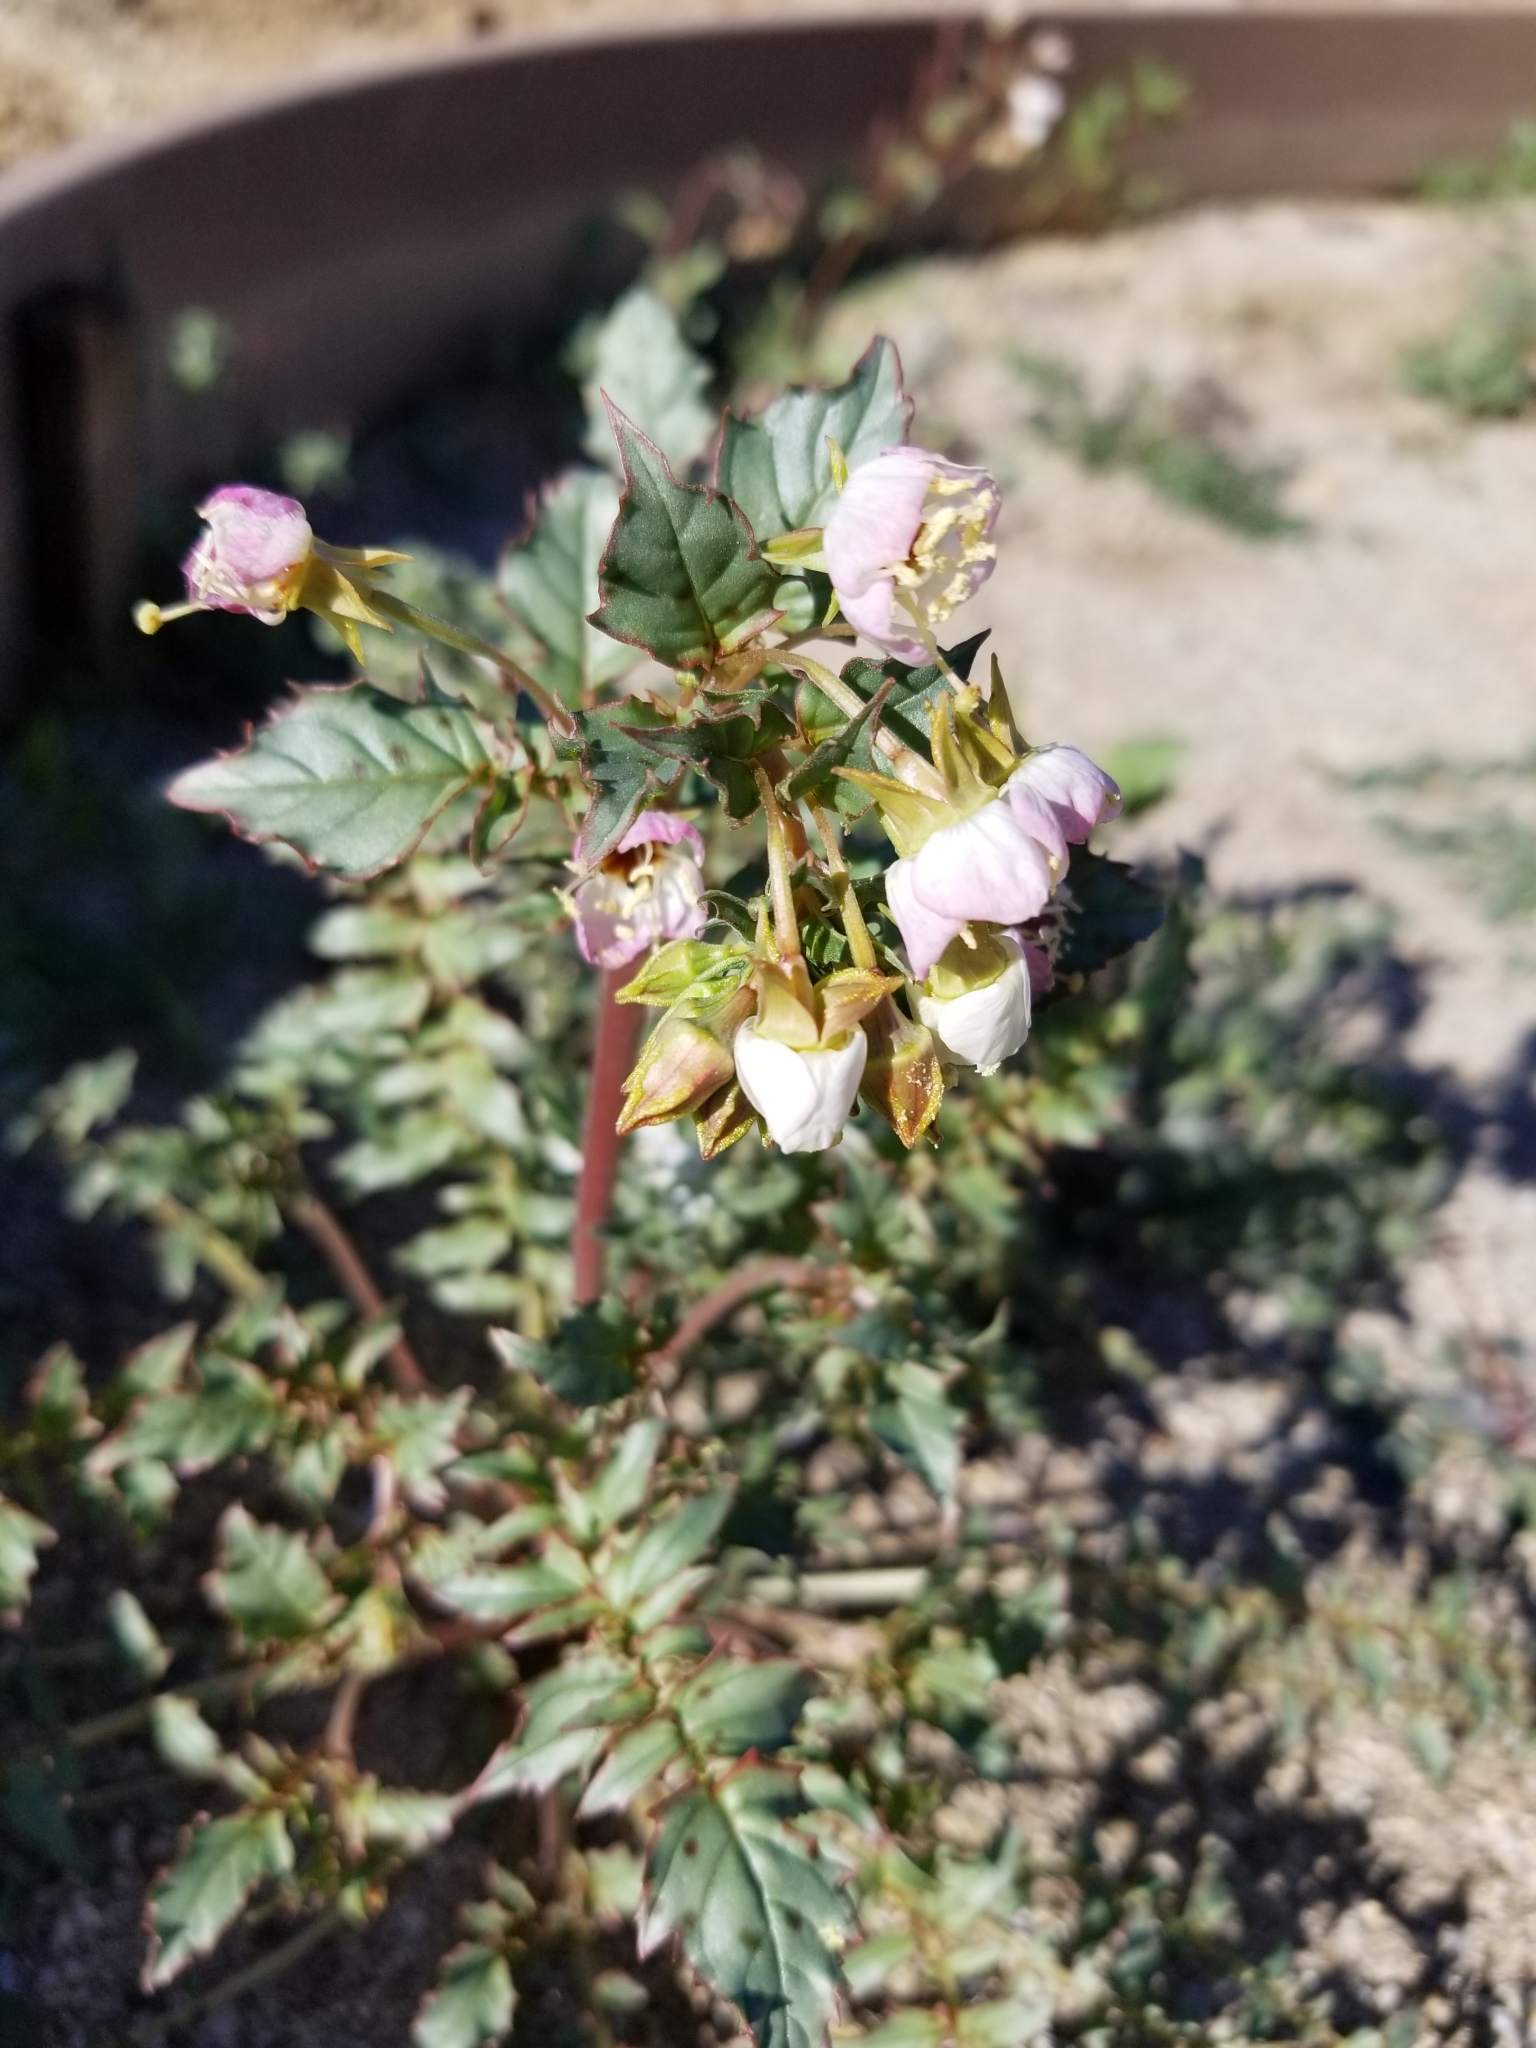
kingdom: Plantae
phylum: Tracheophyta
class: Magnoliopsida
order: Myrtales
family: Onagraceae
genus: Chylismia
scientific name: Chylismia claviformis
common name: Browneyes
